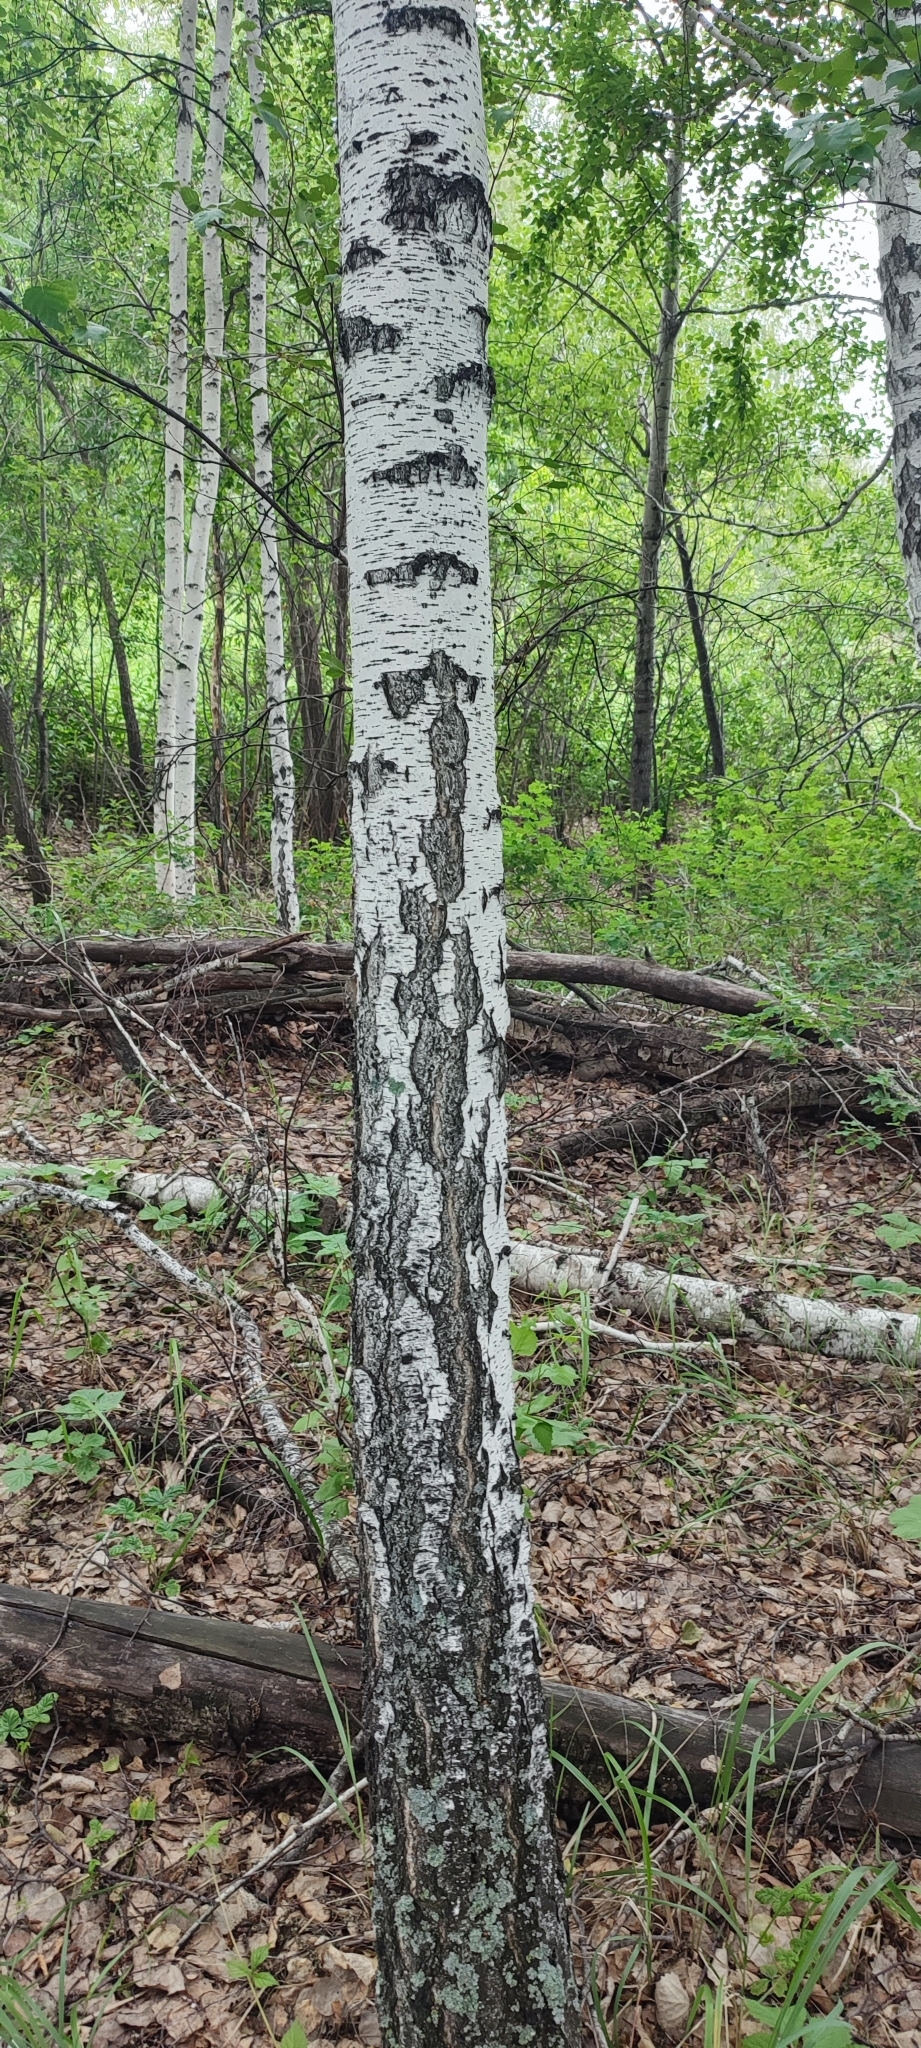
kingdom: Plantae
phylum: Tracheophyta
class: Magnoliopsida
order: Fagales
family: Betulaceae
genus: Betula
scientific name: Betula pendula
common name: Silver birch
